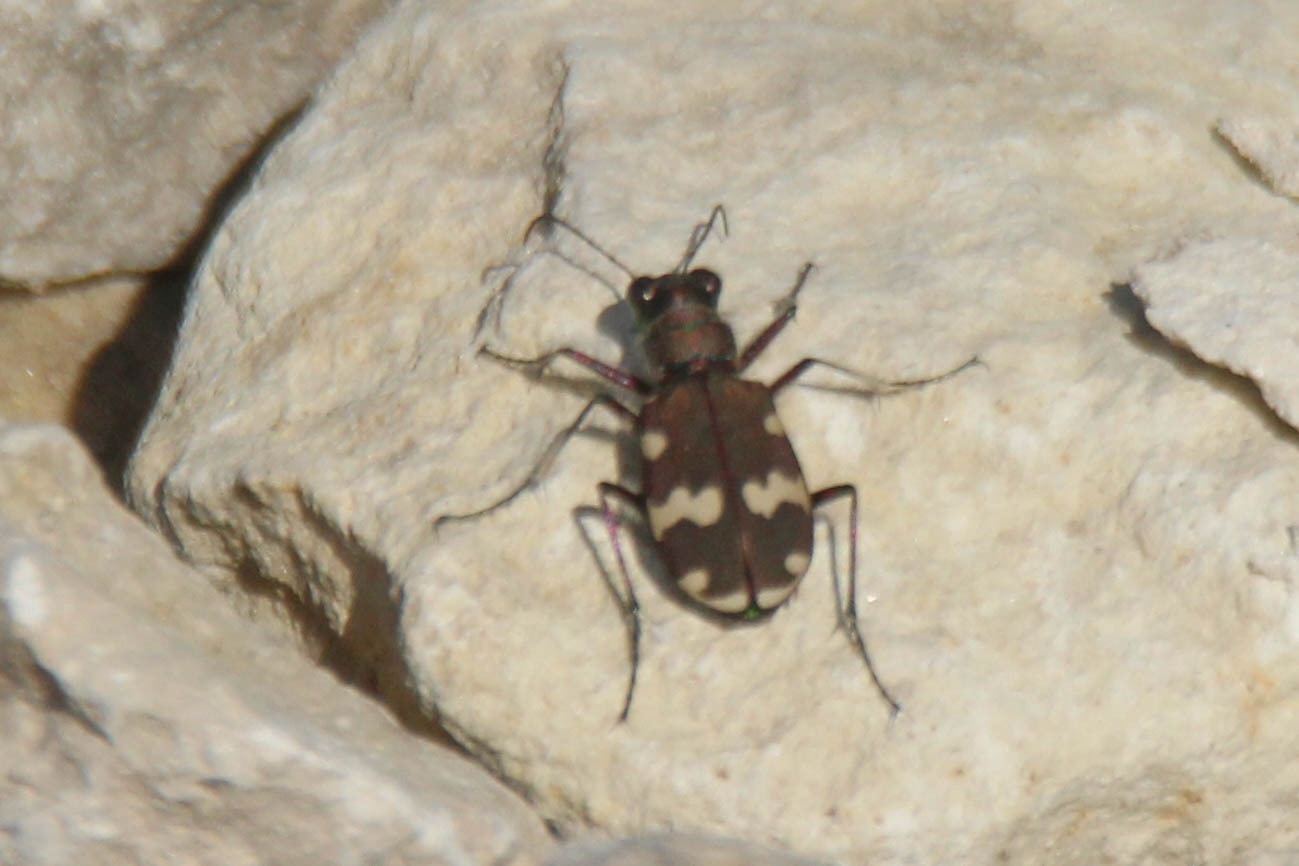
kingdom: Animalia
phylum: Arthropoda
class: Insecta
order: Coleoptera
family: Carabidae
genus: Cicindela
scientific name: Cicindela hybrida
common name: Northern dune tiger beetle
